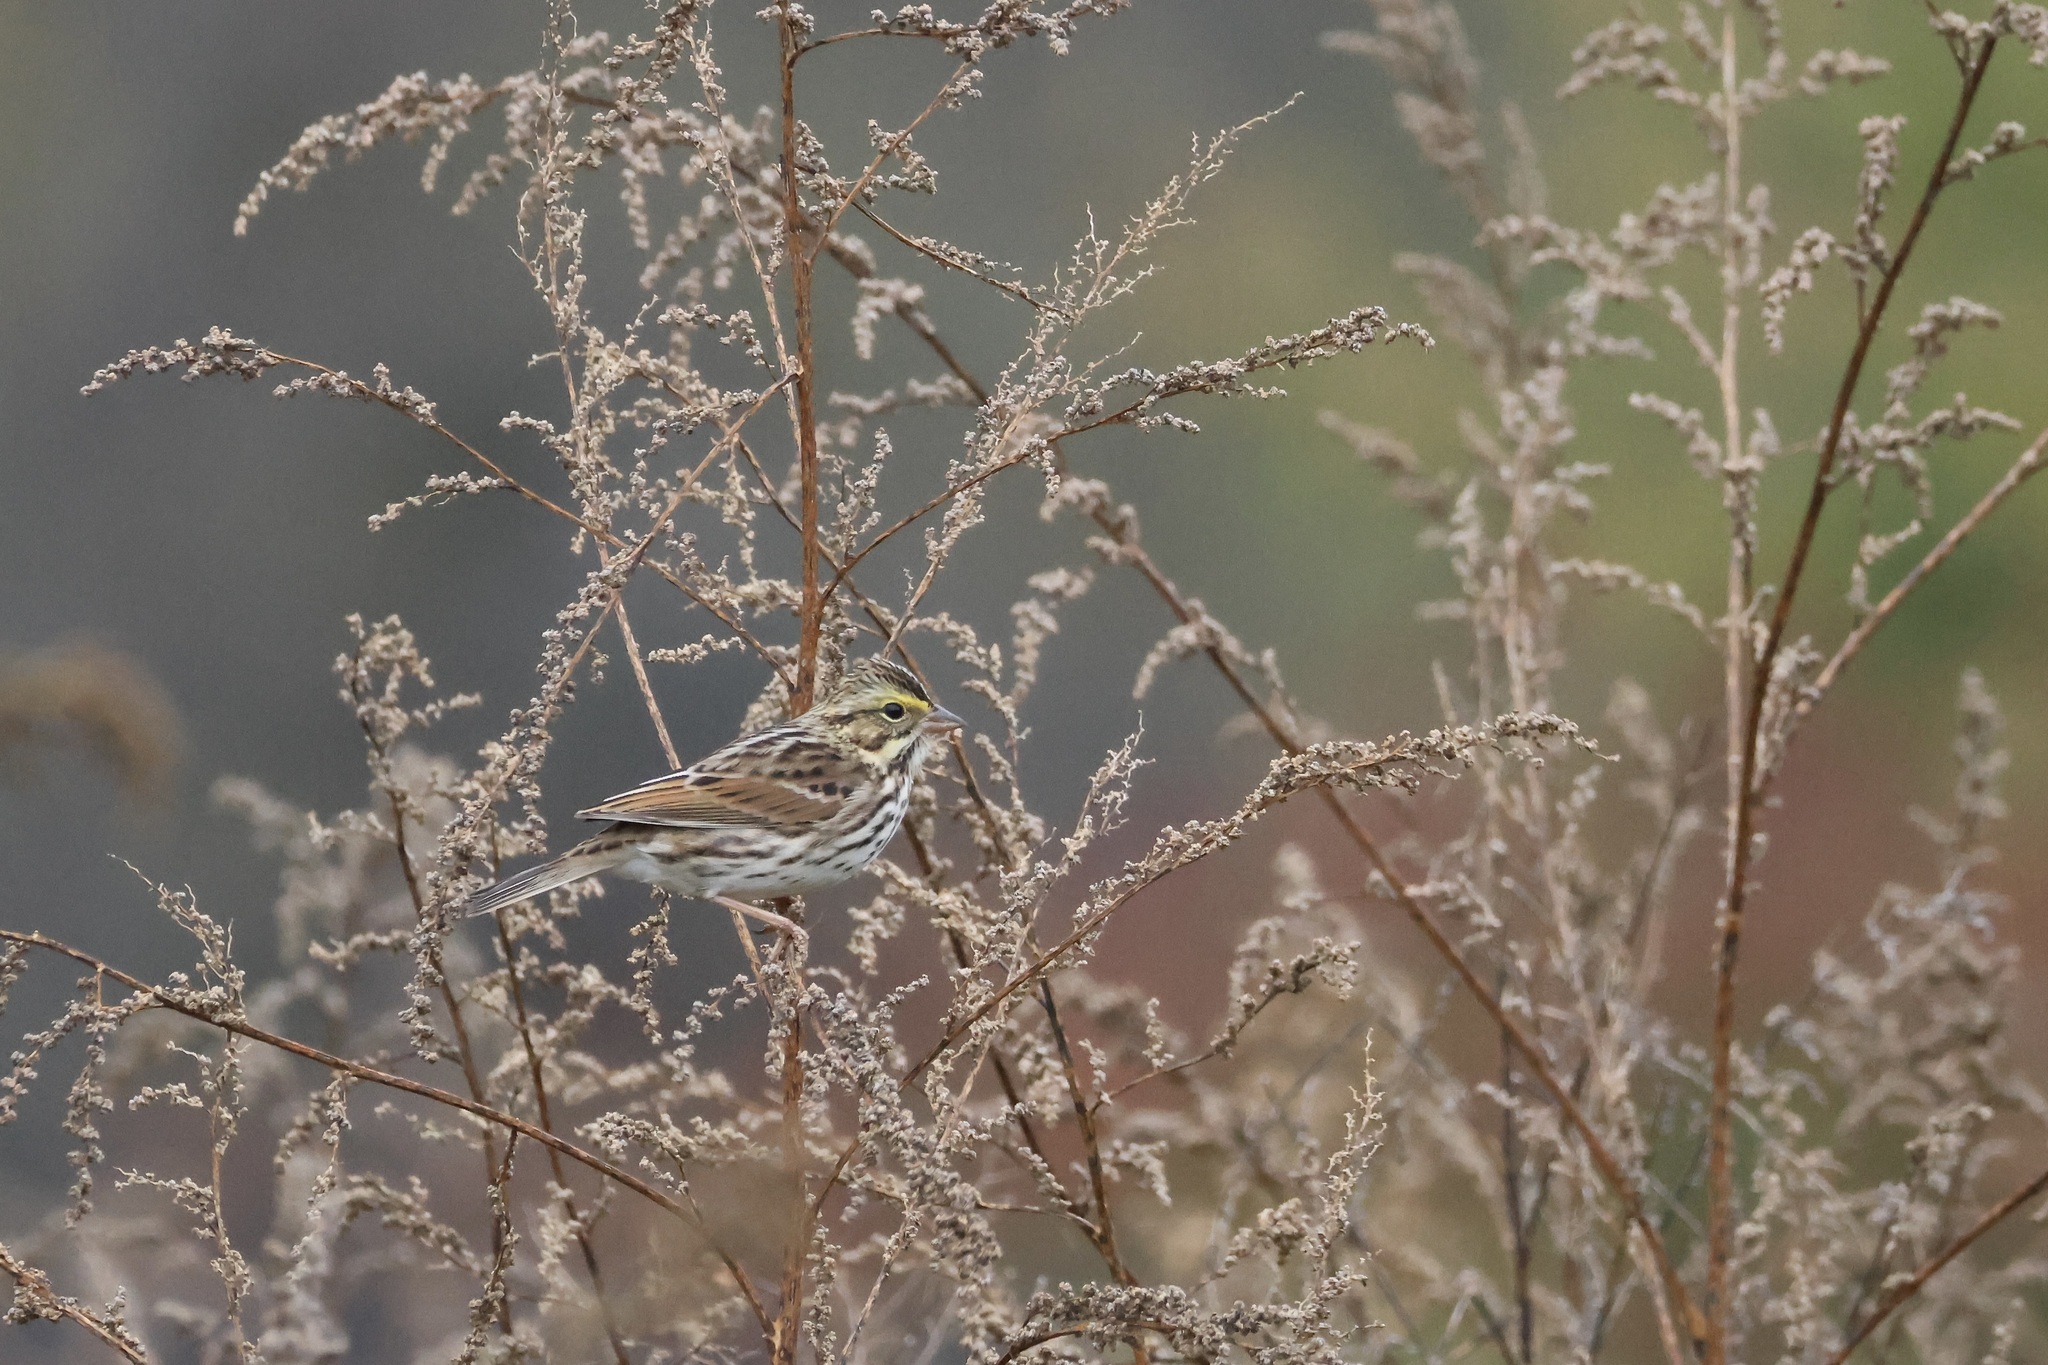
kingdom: Animalia
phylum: Chordata
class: Aves
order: Passeriformes
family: Passerellidae
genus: Passerculus
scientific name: Passerculus sandwichensis
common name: Savannah sparrow
